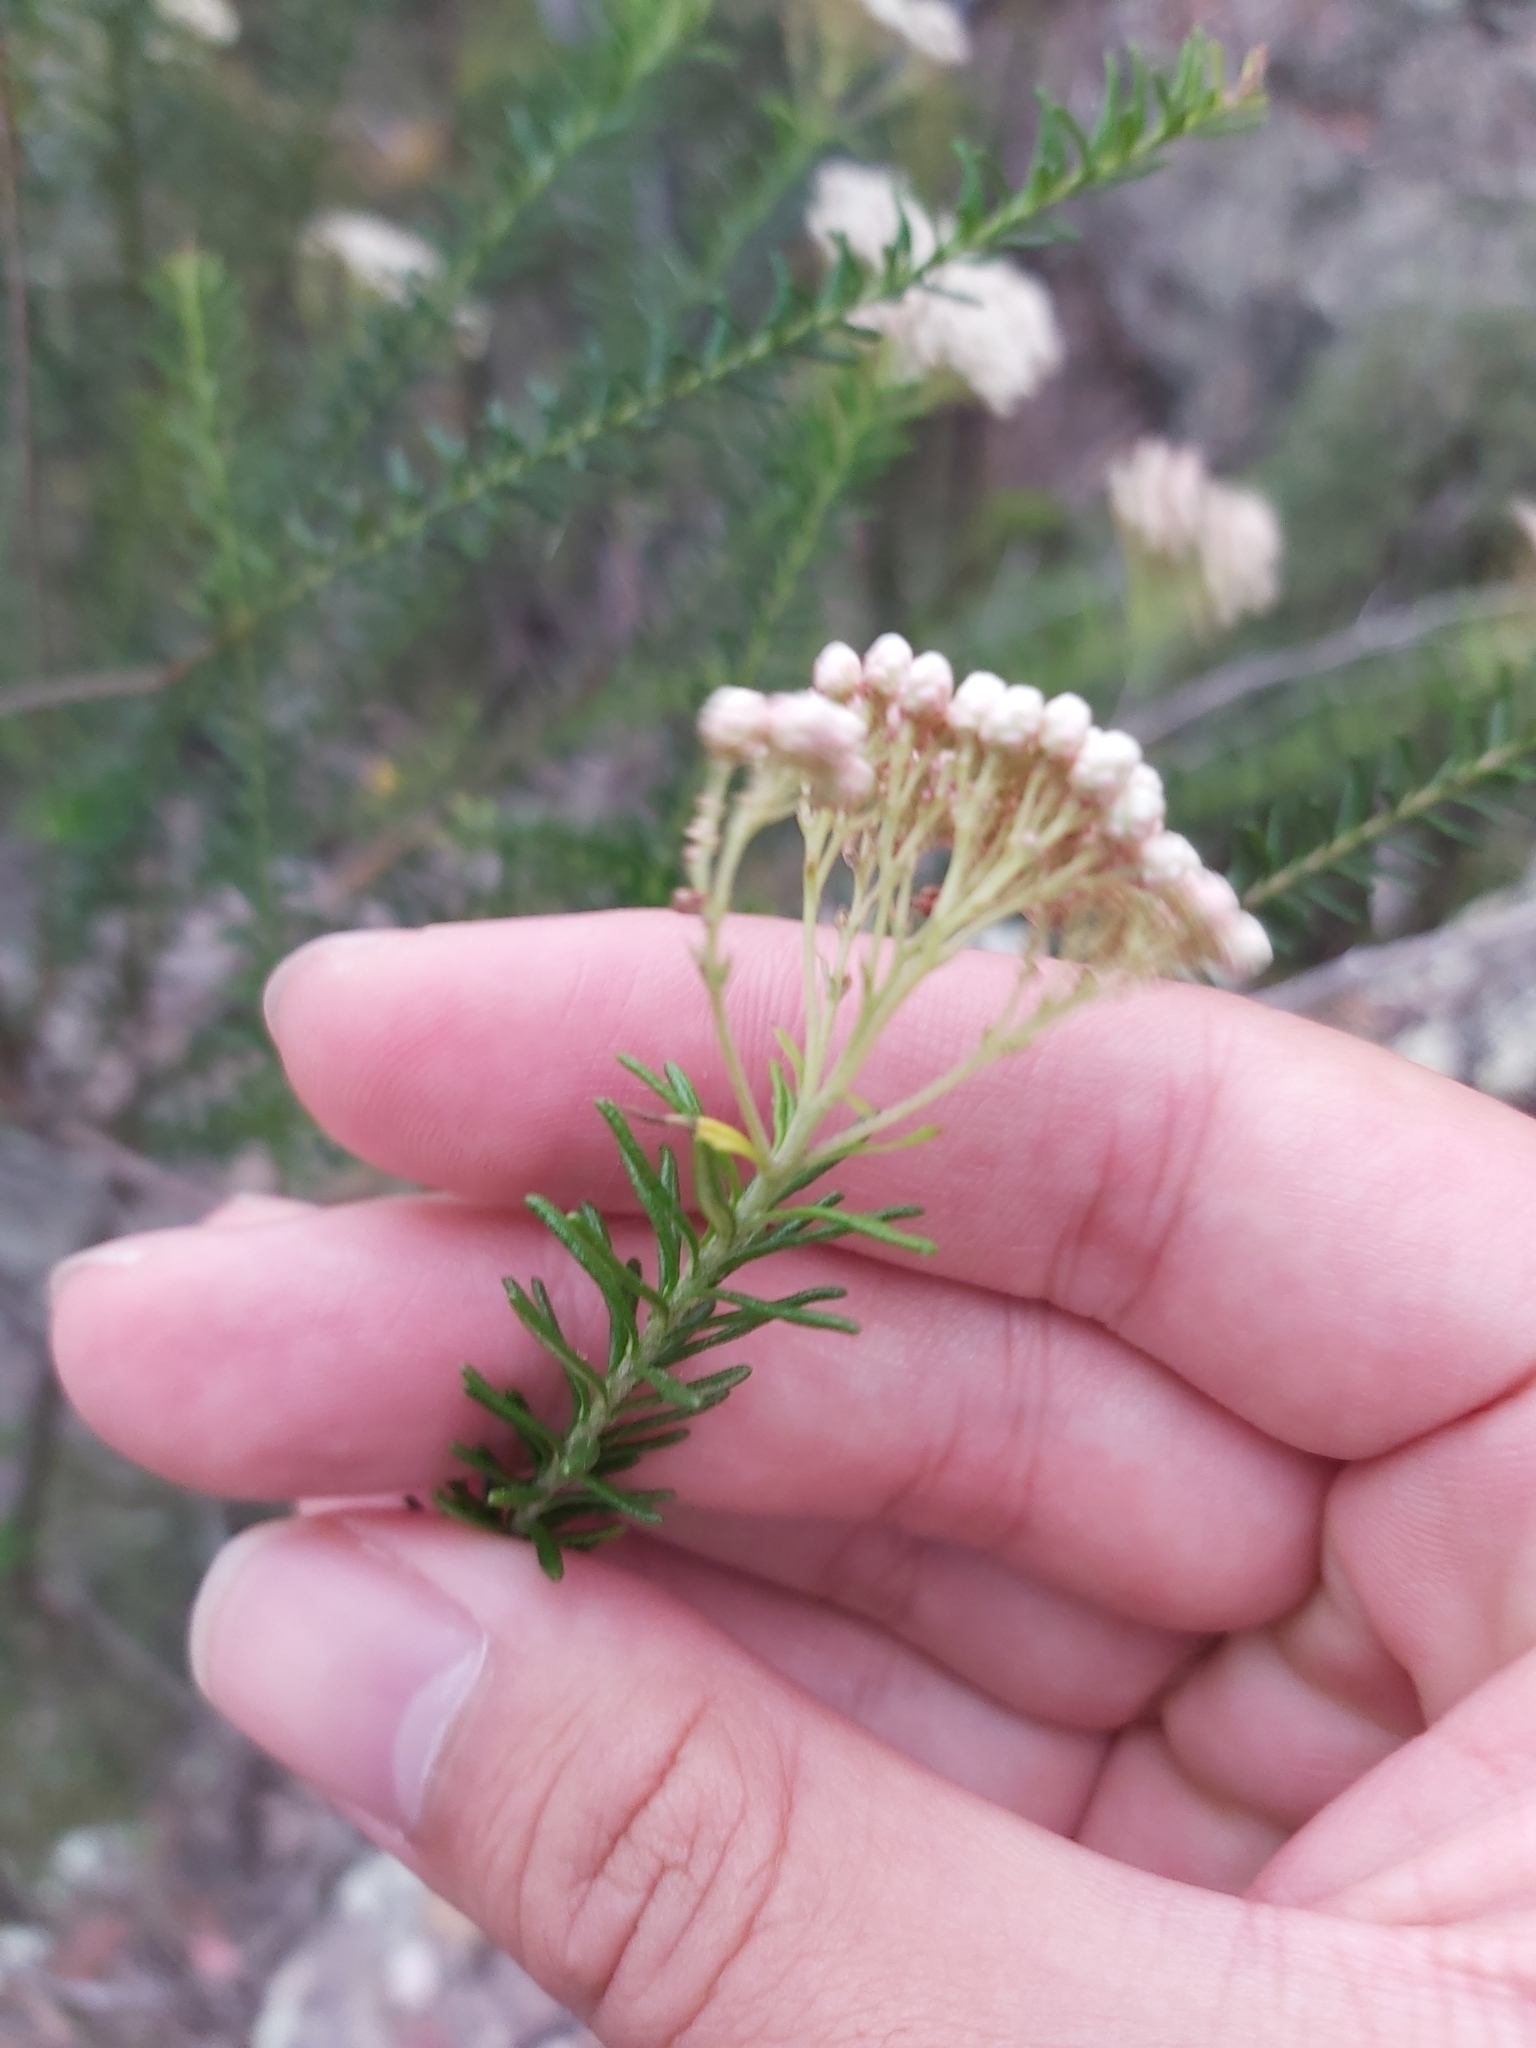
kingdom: Plantae
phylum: Tracheophyta
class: Magnoliopsida
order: Asterales
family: Asteraceae
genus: Ozothamnus
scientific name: Ozothamnus diosmifolius
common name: White-dogwood
